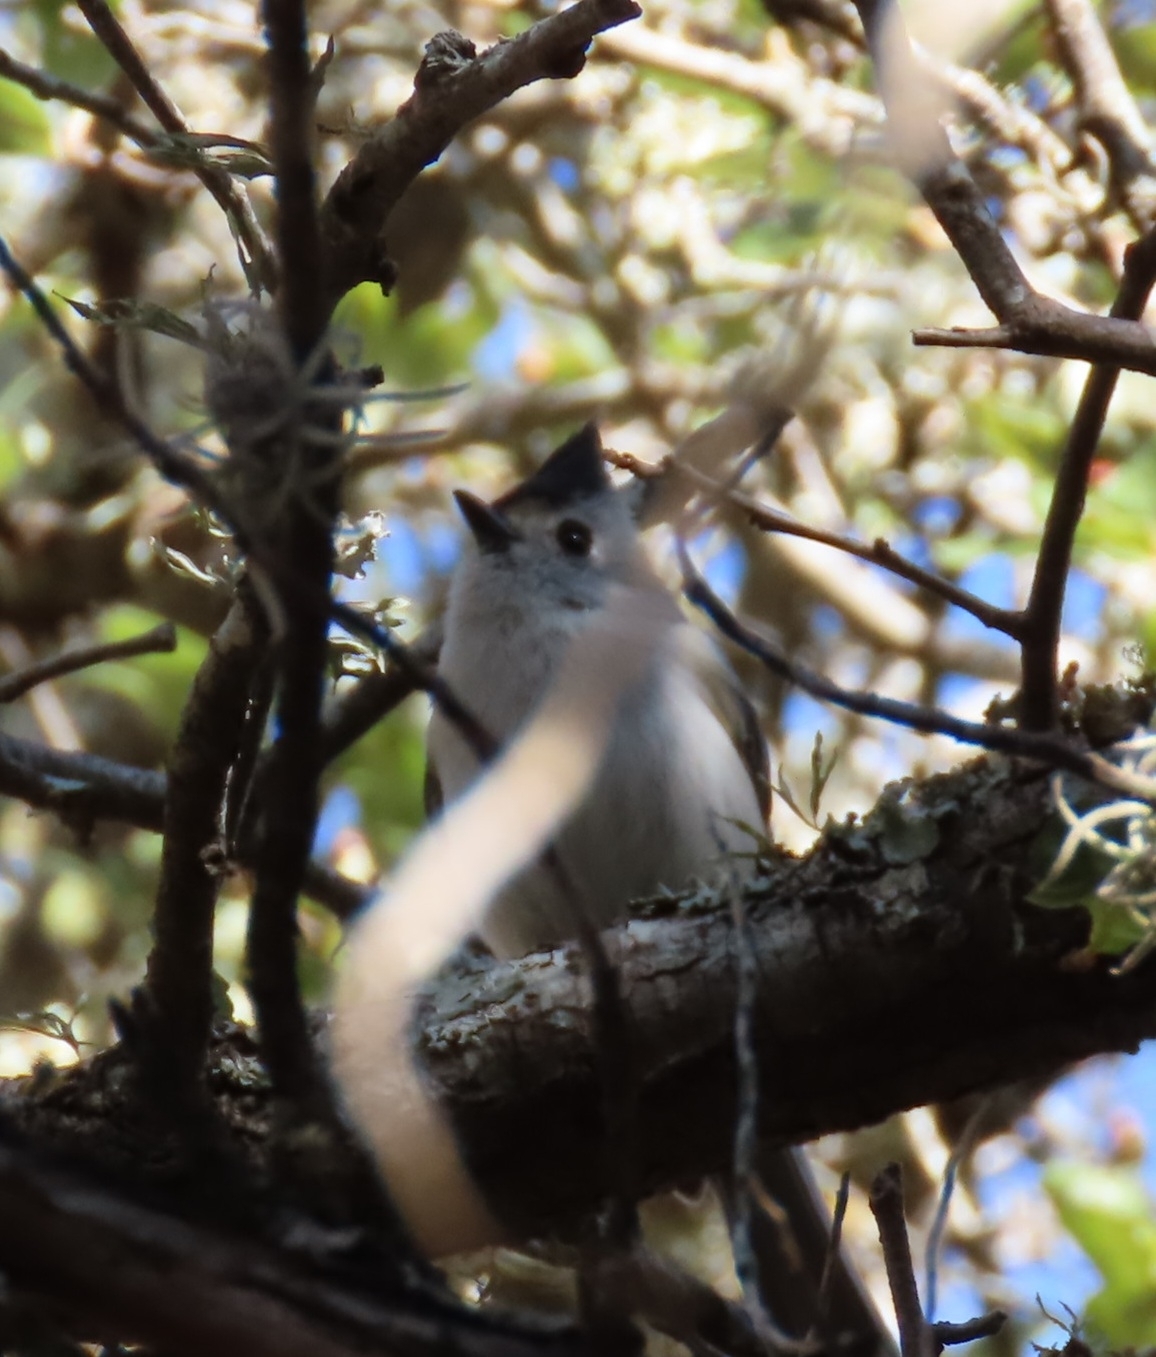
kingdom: Animalia
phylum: Chordata
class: Aves
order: Passeriformes
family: Paridae
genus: Baeolophus
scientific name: Baeolophus atricristatus
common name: Black-crested titmouse
